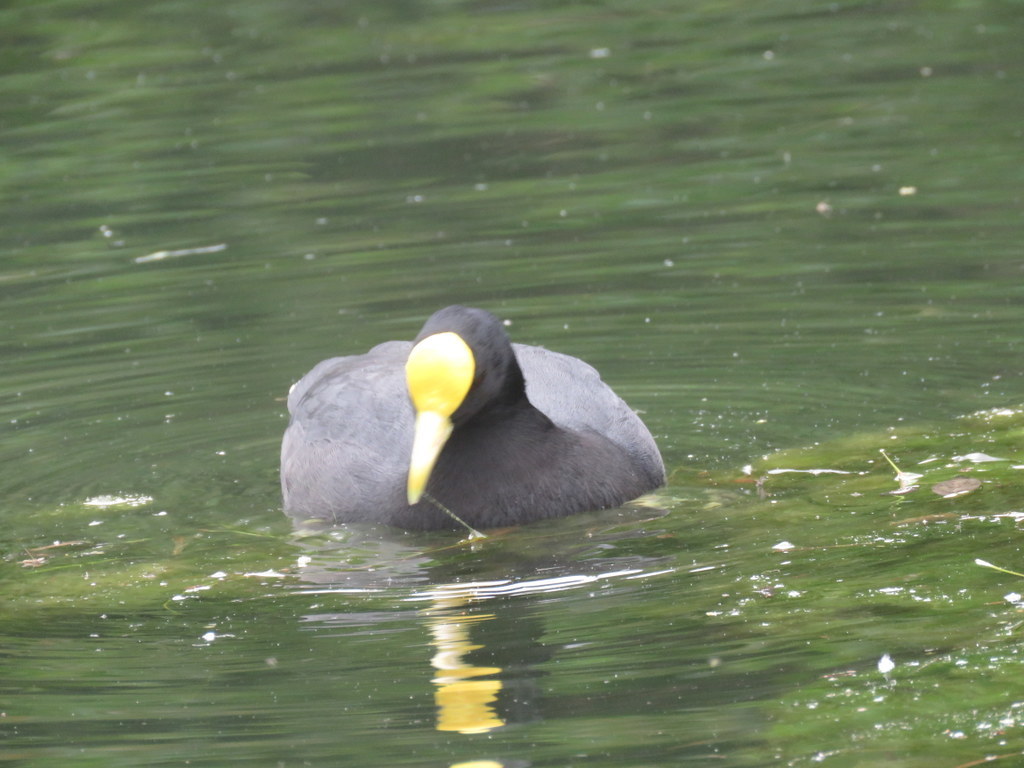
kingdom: Animalia
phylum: Chordata
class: Aves
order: Gruiformes
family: Rallidae
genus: Fulica
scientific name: Fulica leucoptera
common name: White-winged coot
